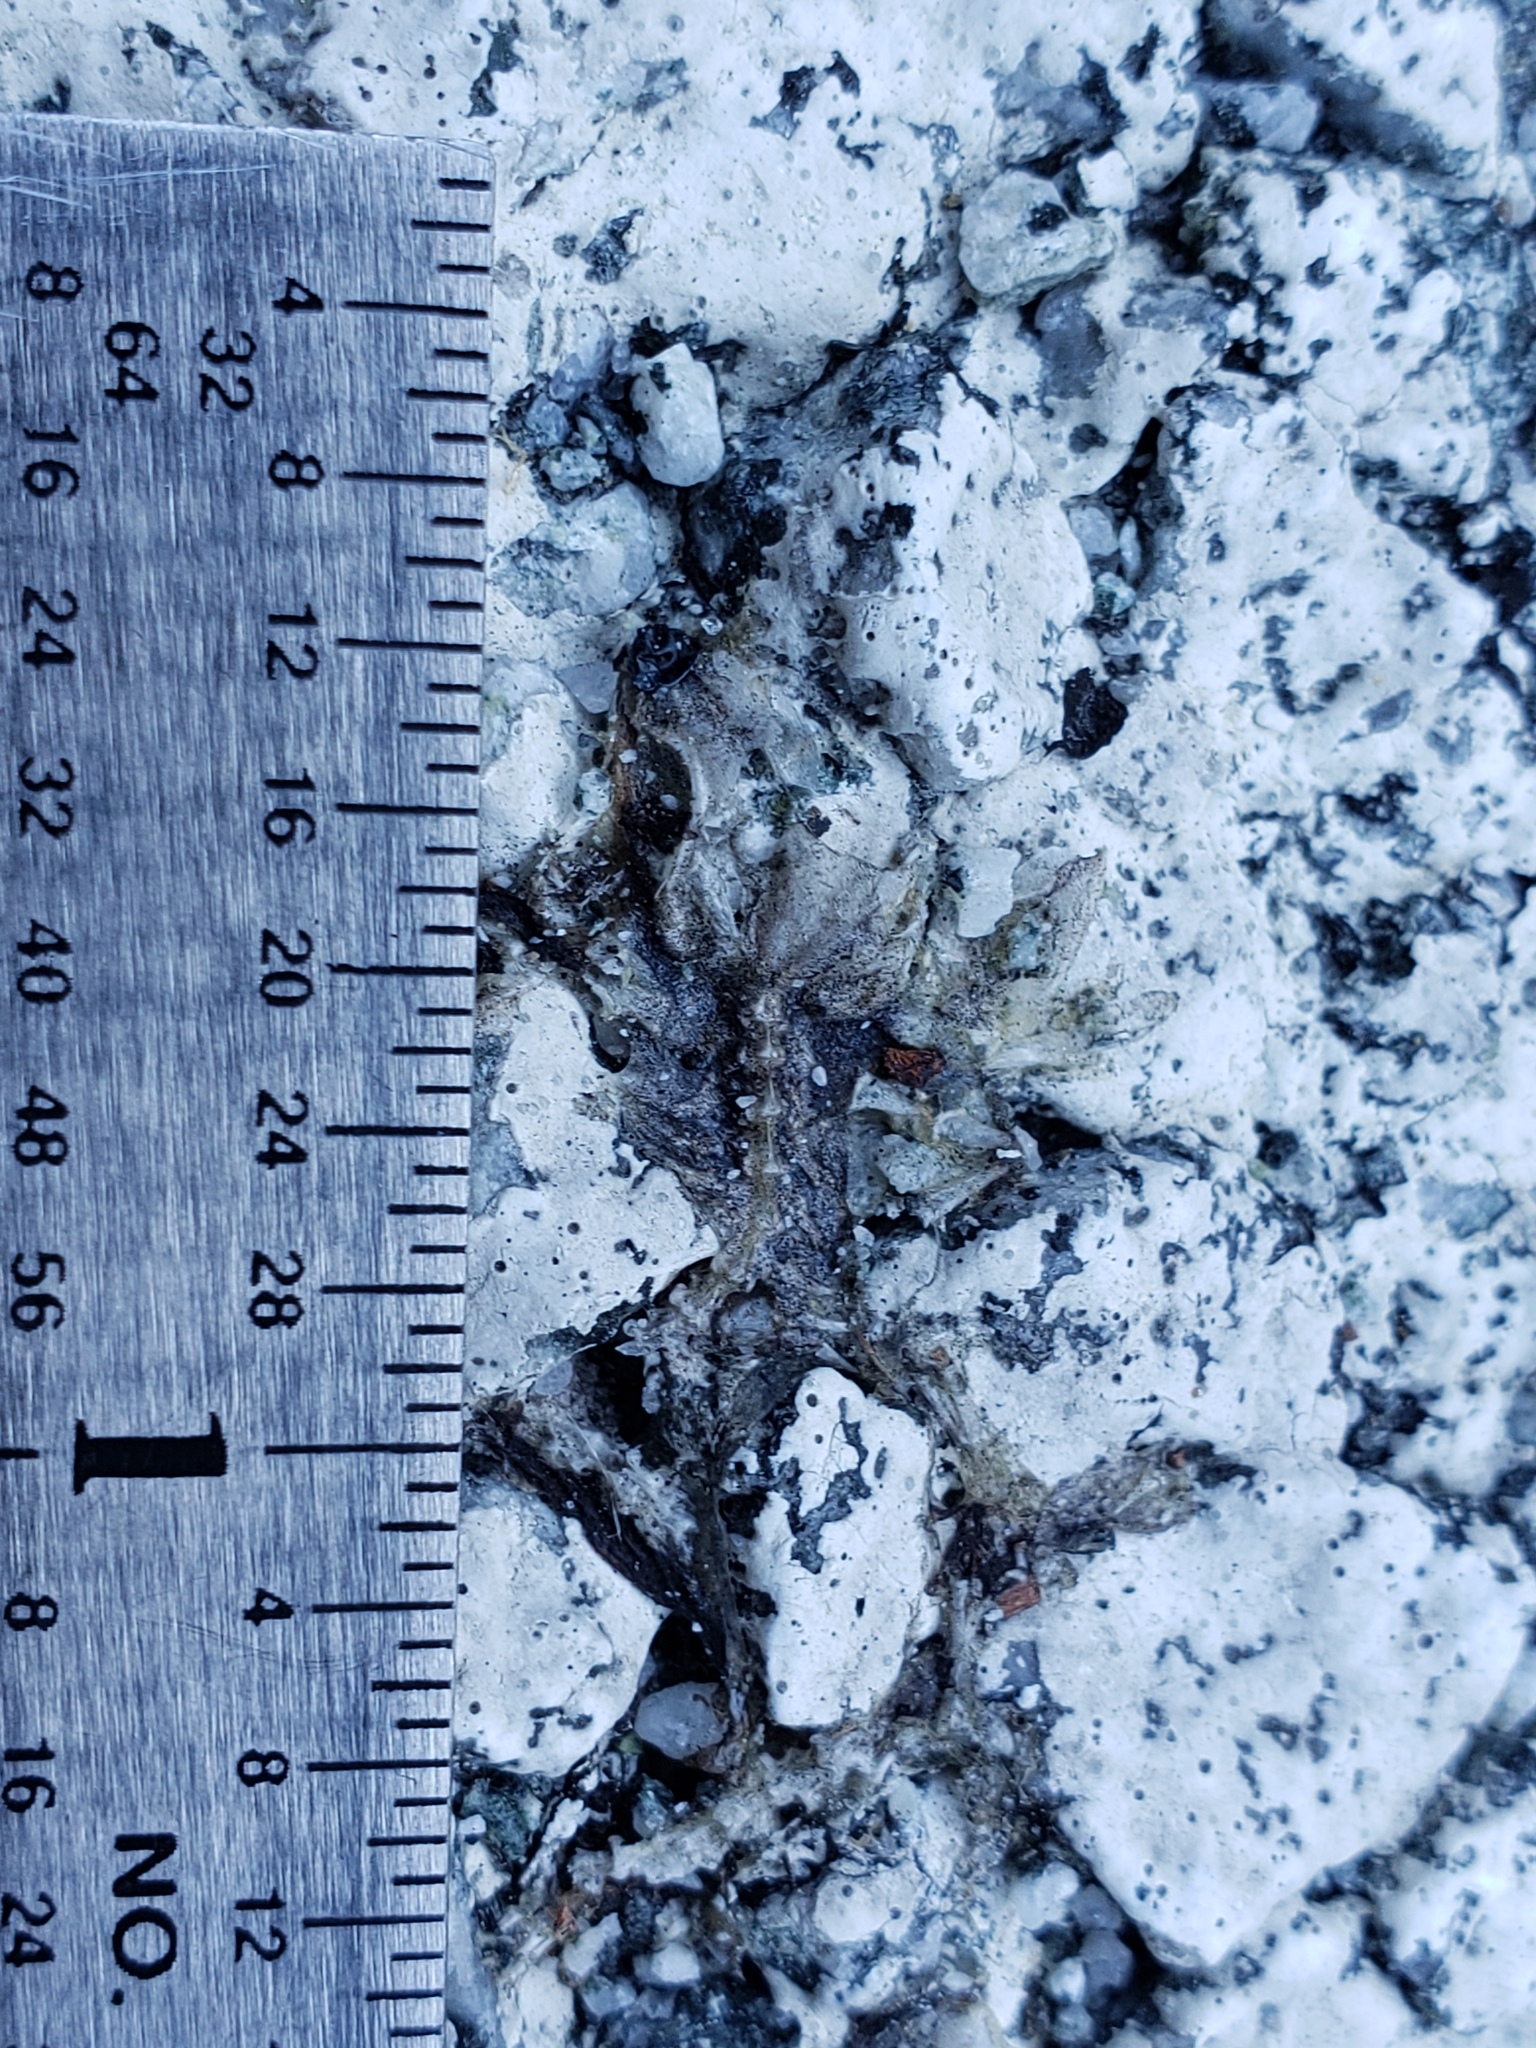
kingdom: Animalia
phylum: Chordata
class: Amphibia
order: Caudata
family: Salamandridae
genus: Taricha
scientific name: Taricha
